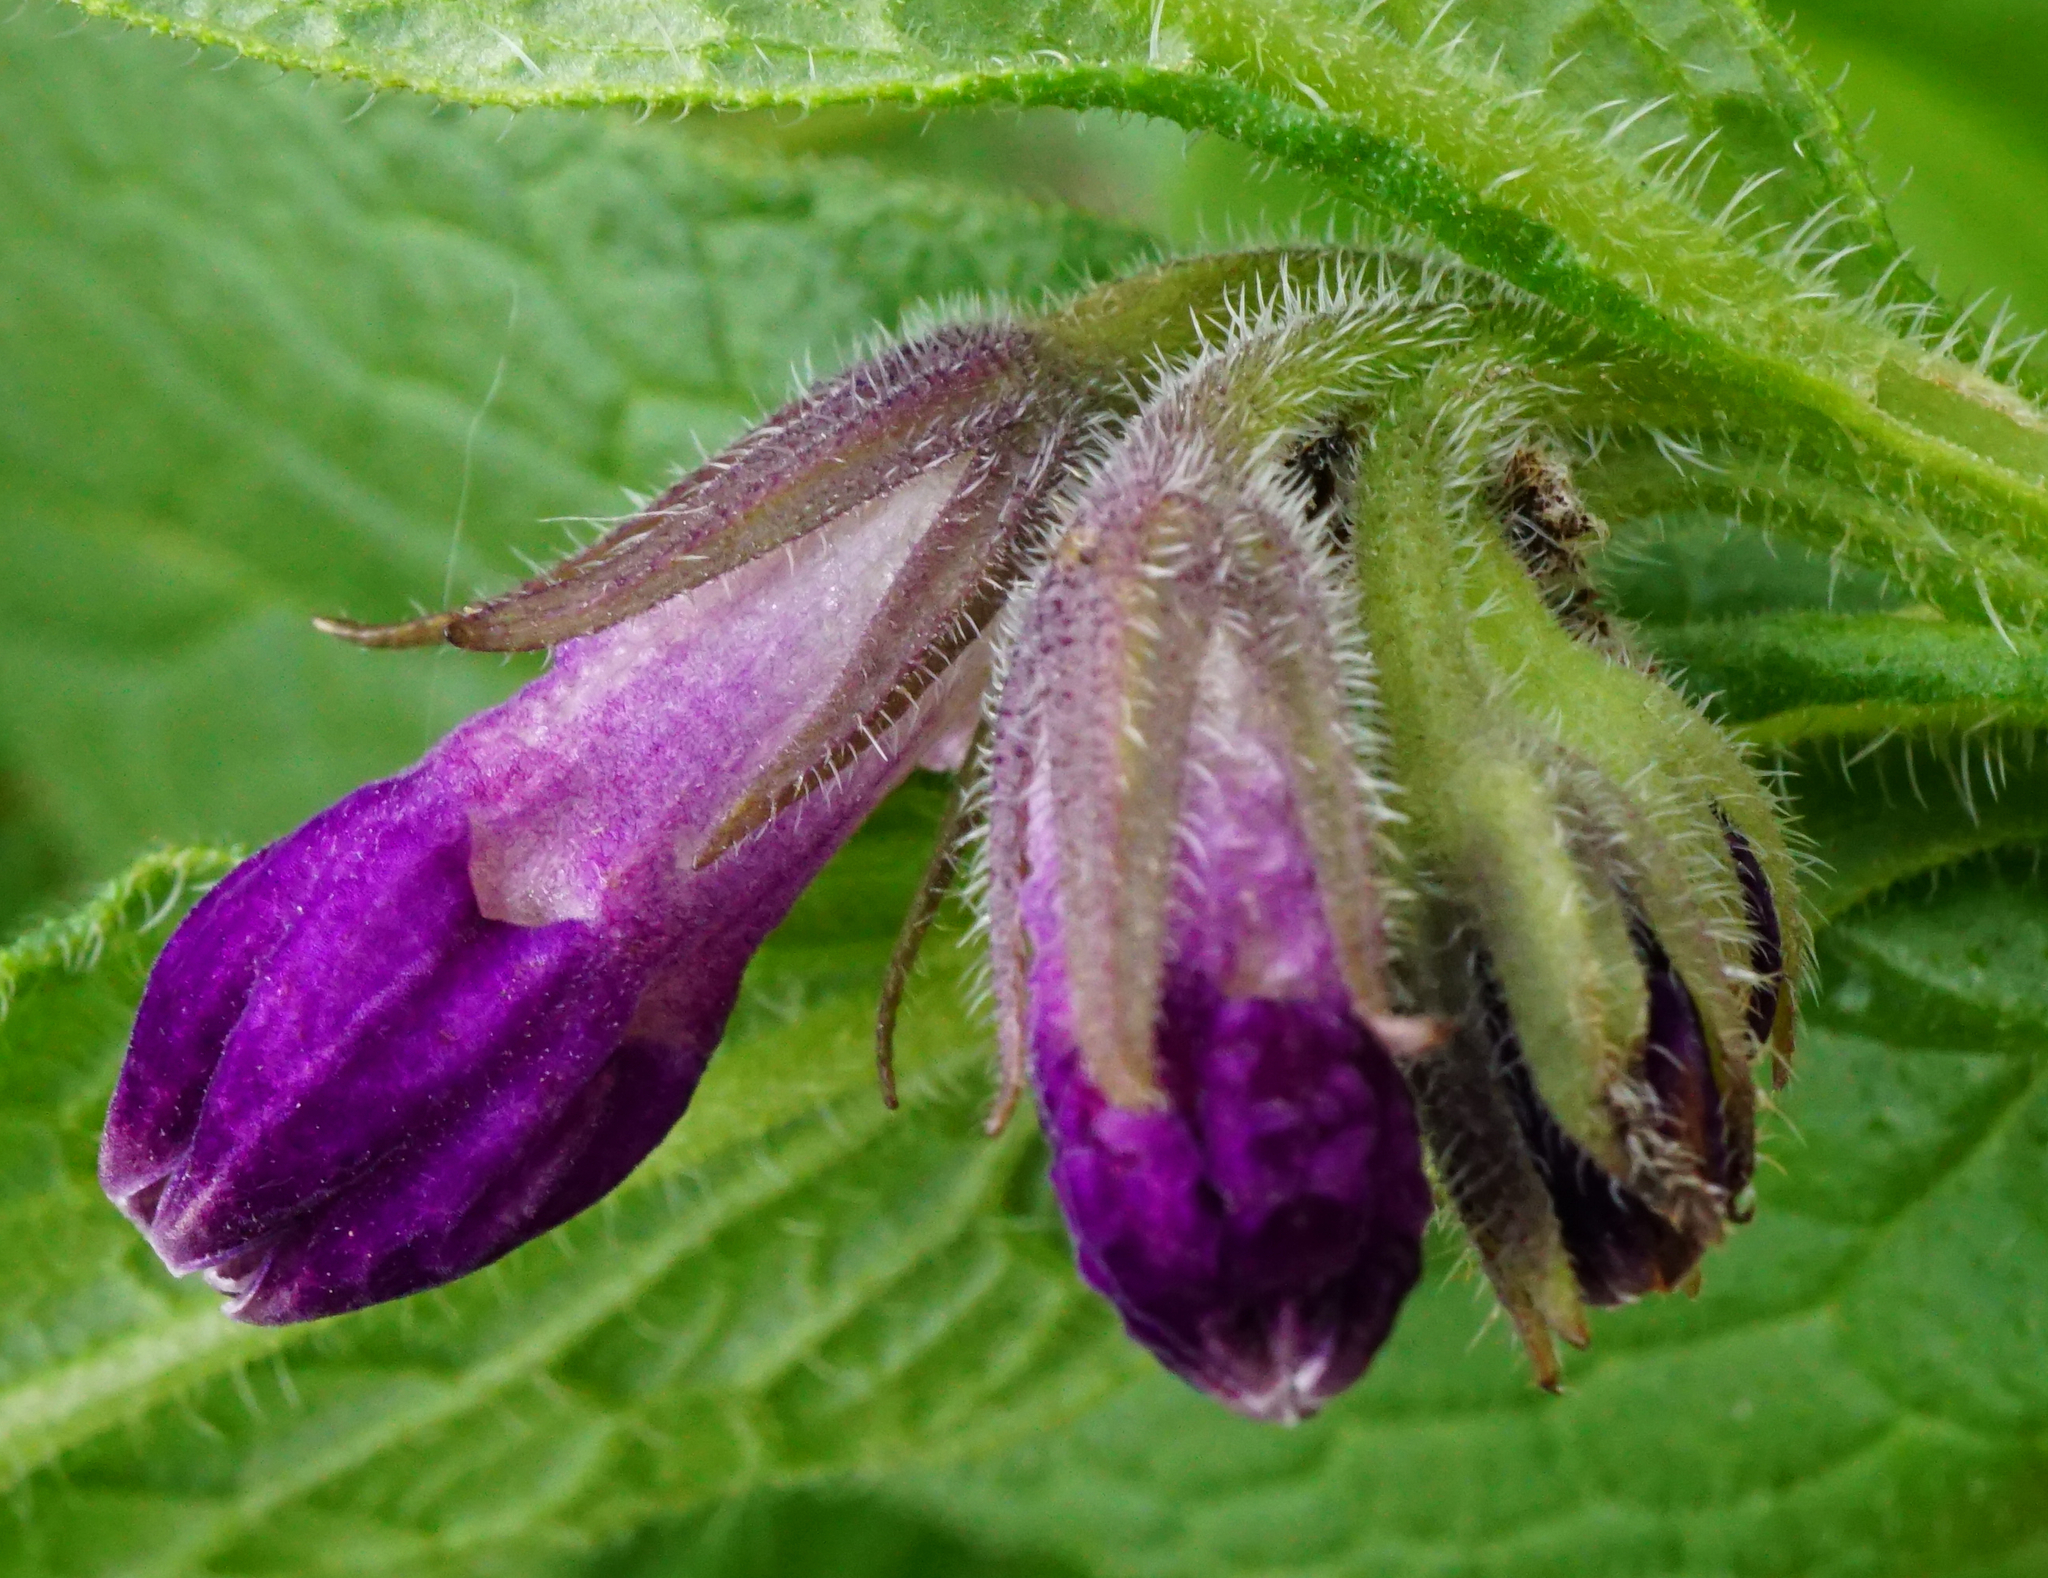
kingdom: Plantae
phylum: Tracheophyta
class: Magnoliopsida
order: Boraginales
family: Boraginaceae
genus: Symphytum
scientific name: Symphytum officinale
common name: Common comfrey
